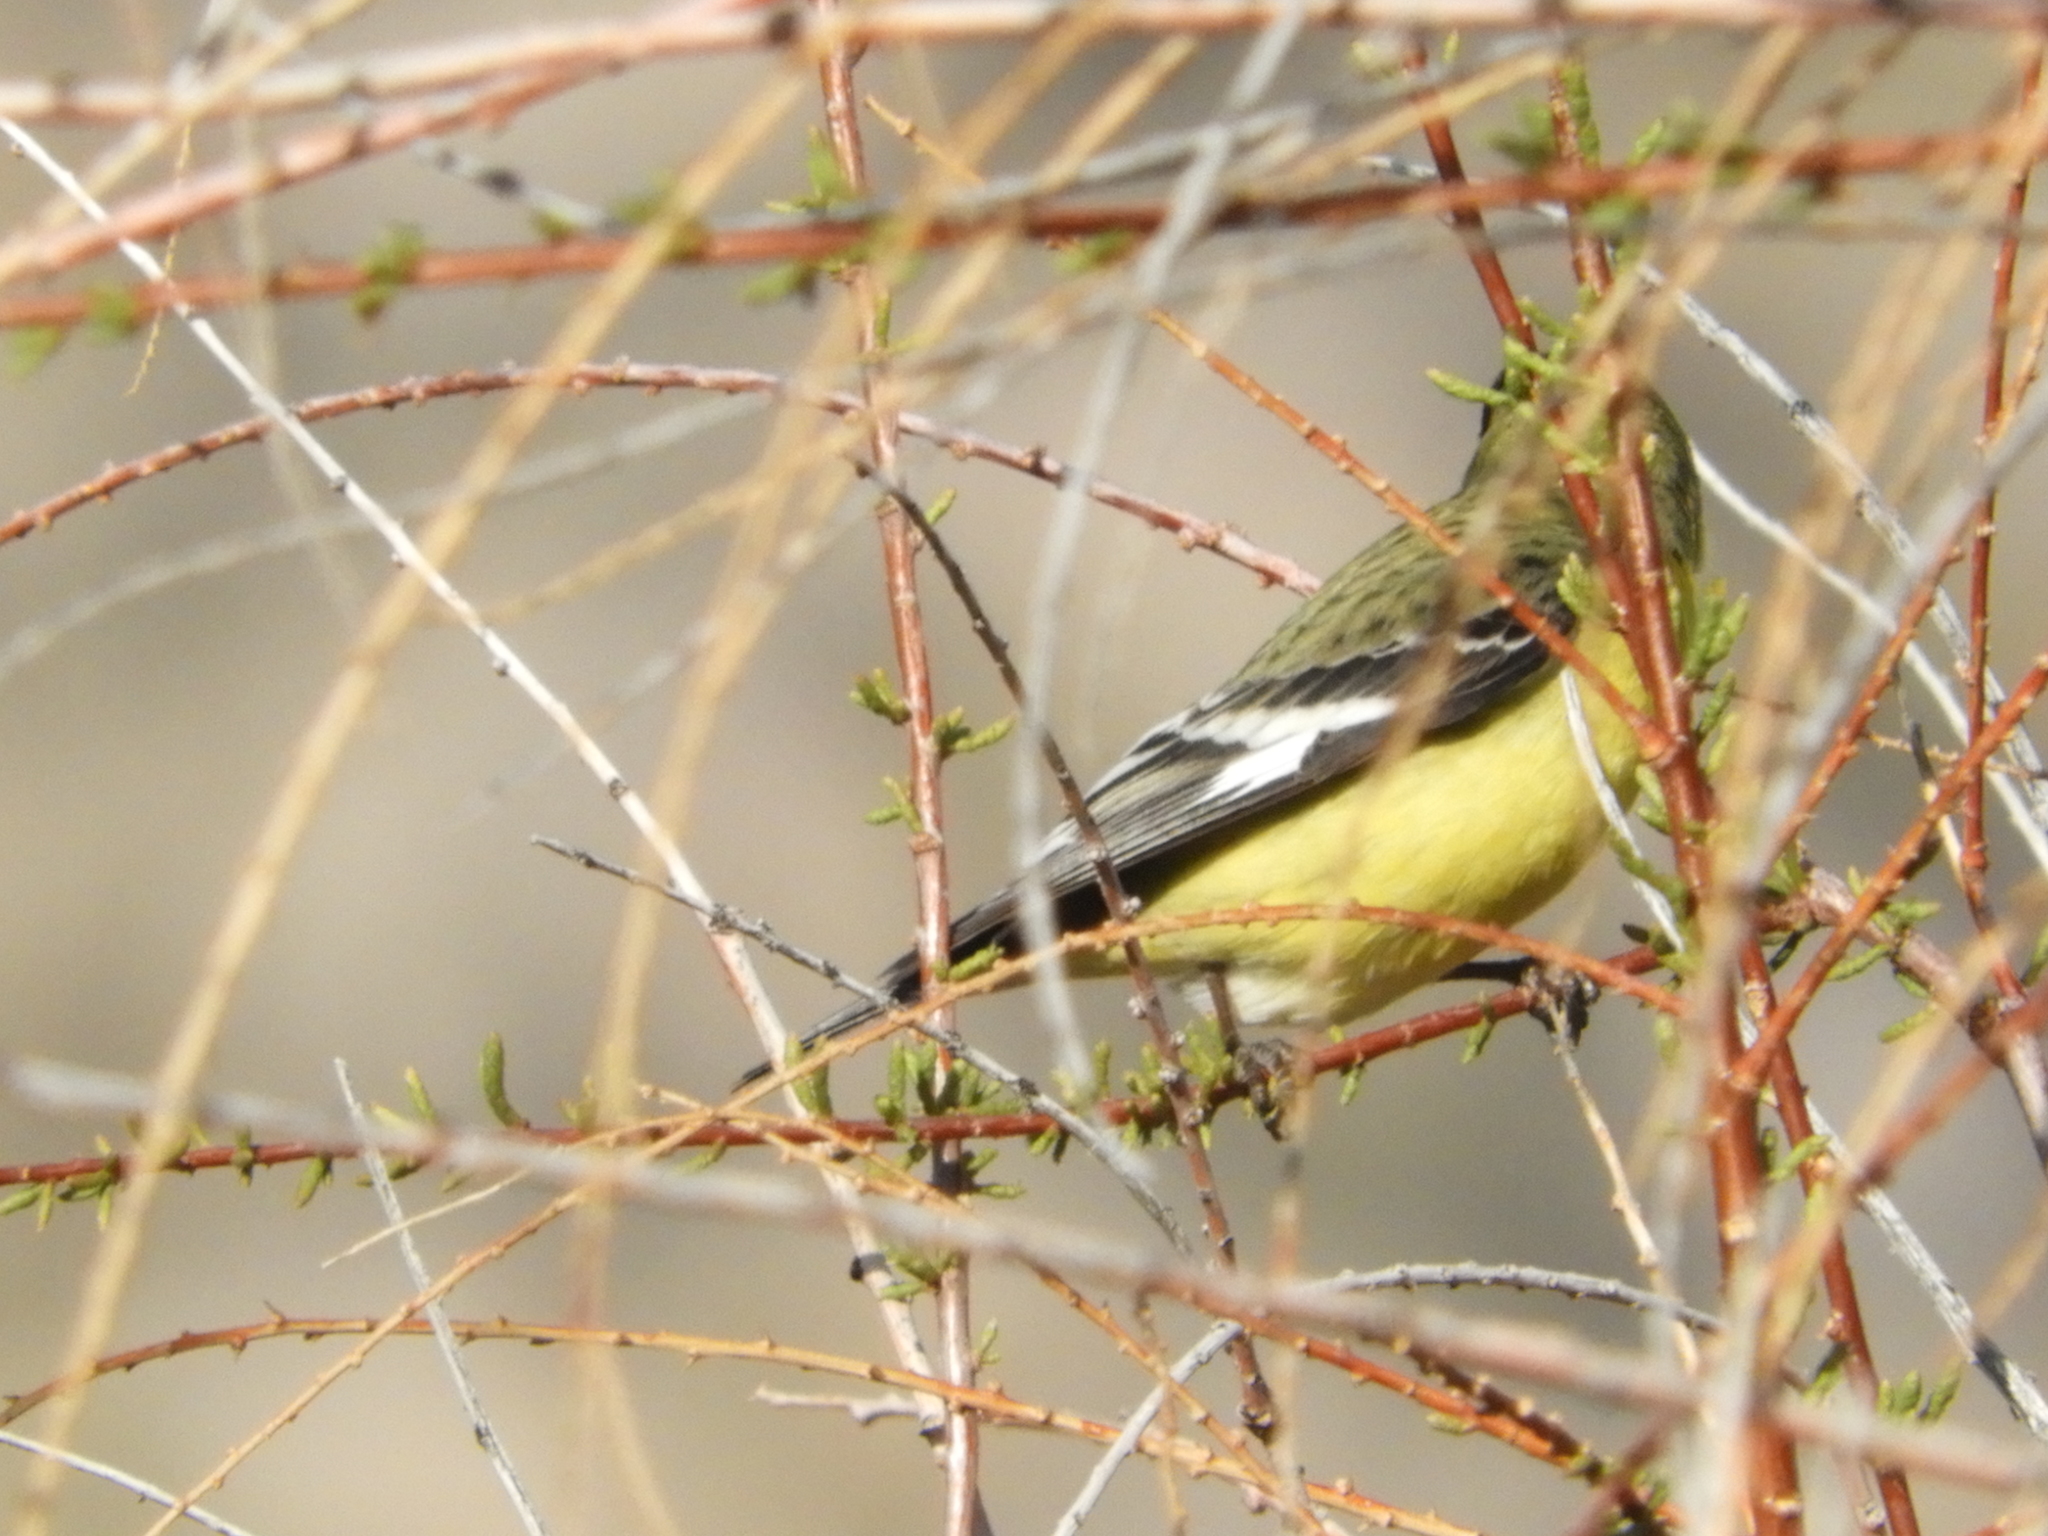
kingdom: Animalia
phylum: Chordata
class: Aves
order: Passeriformes
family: Fringillidae
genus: Spinus
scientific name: Spinus psaltria
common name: Lesser goldfinch
